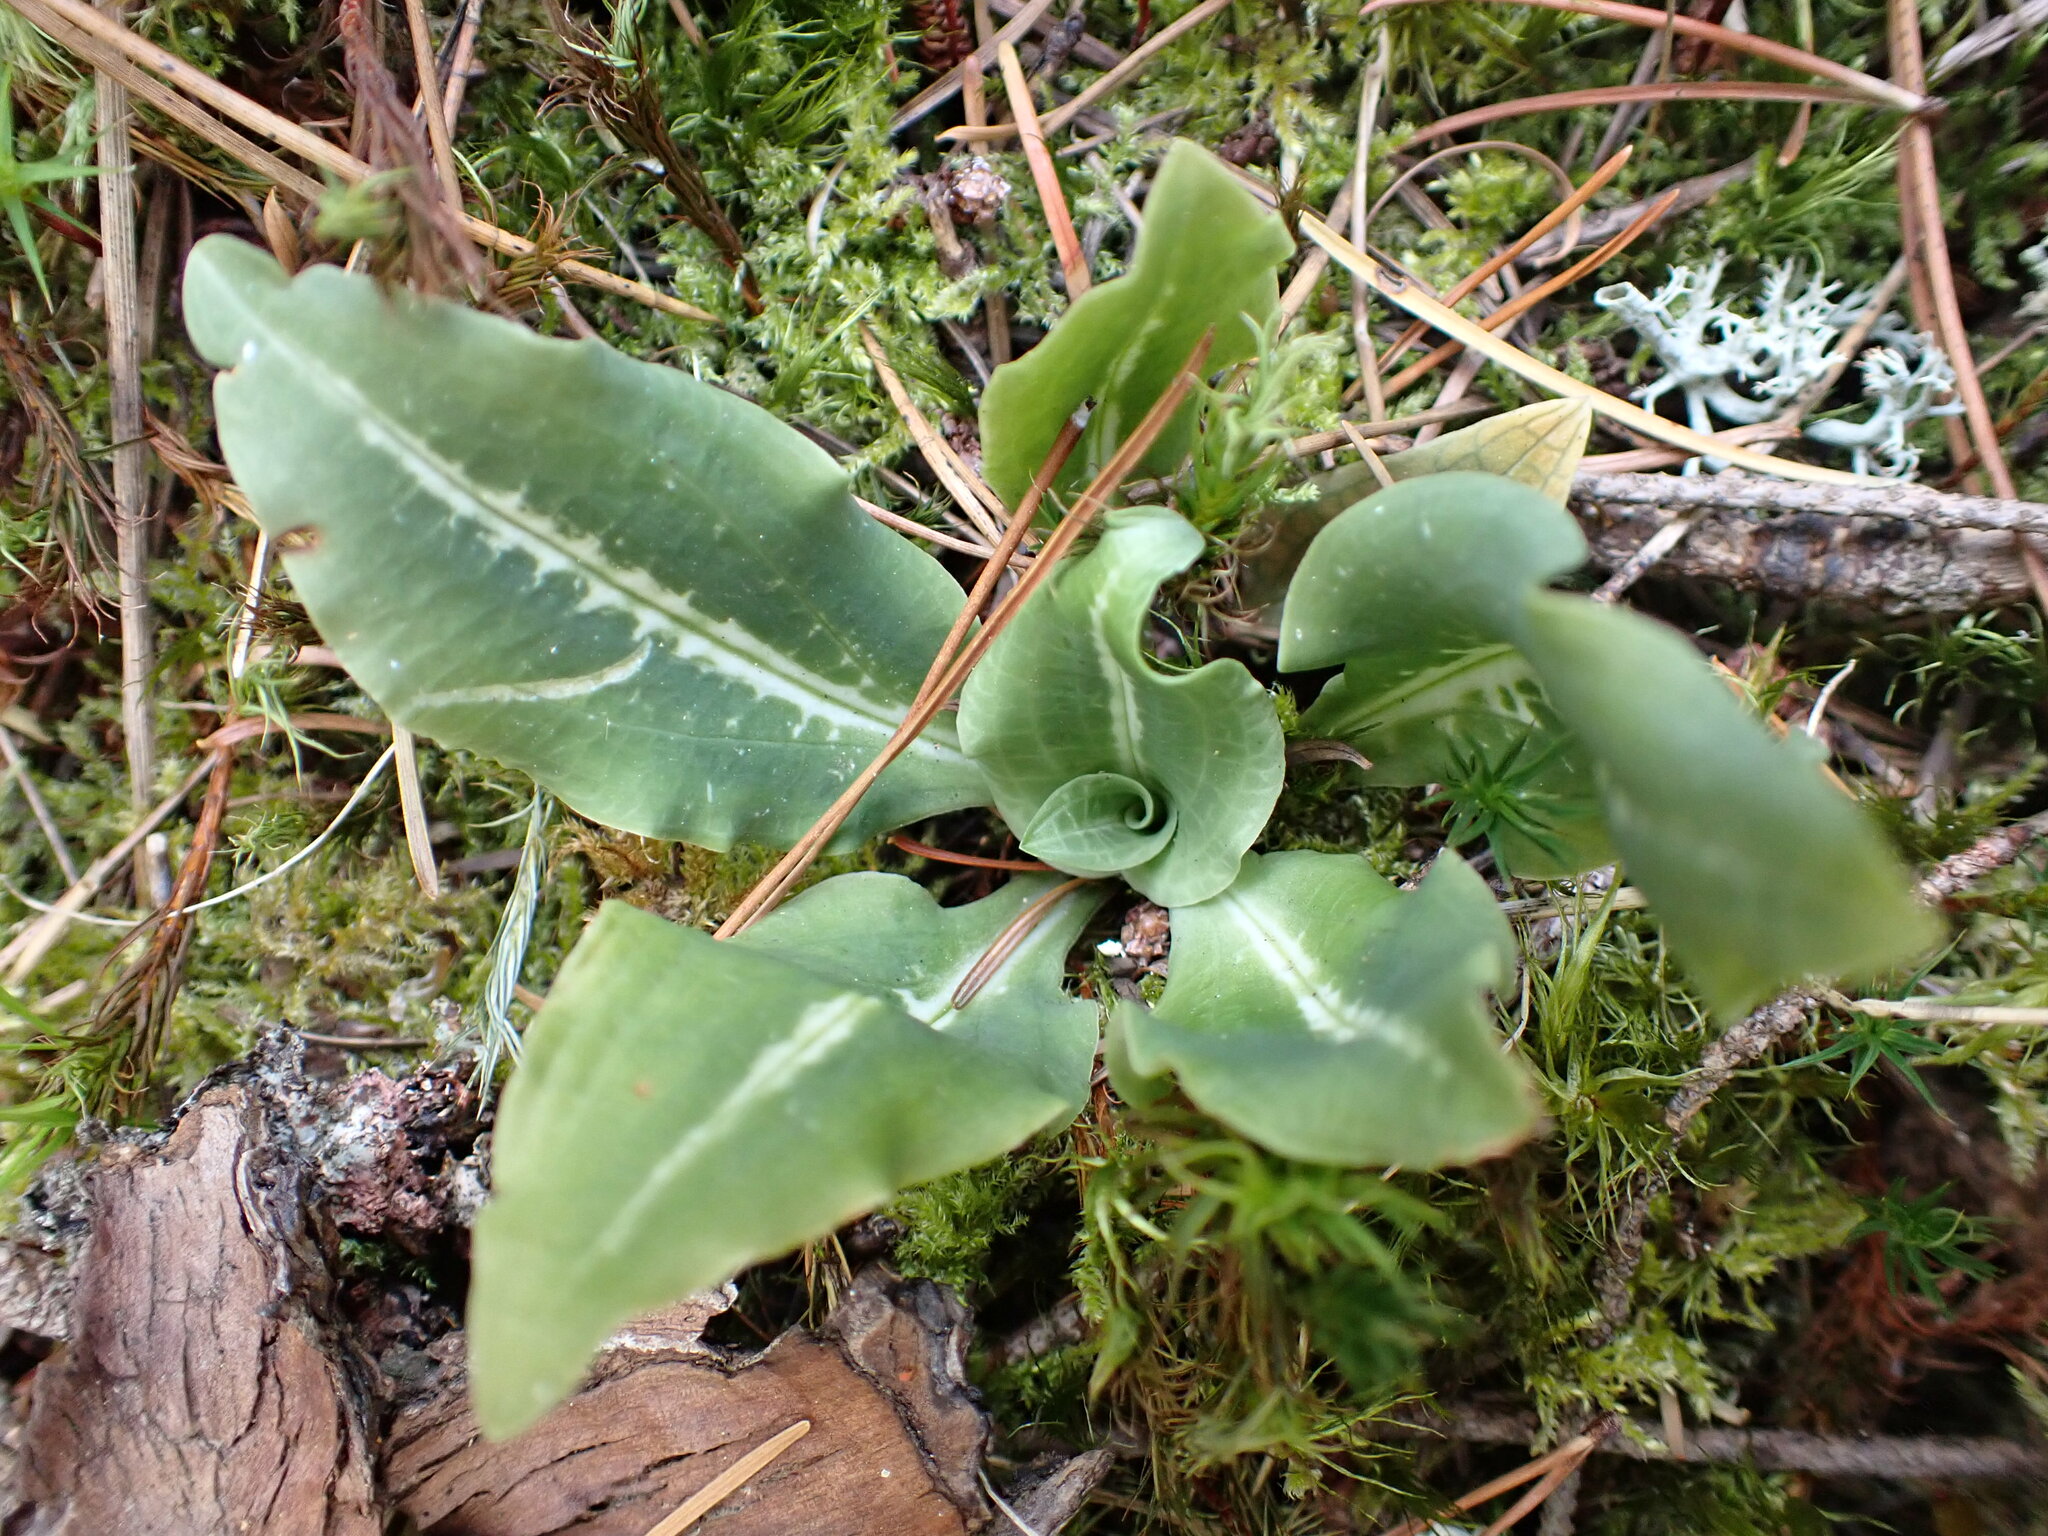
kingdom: Plantae
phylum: Tracheophyta
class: Liliopsida
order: Asparagales
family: Orchidaceae
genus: Goodyera
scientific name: Goodyera oblongifolia
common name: Giant rattlesnake-plantain
